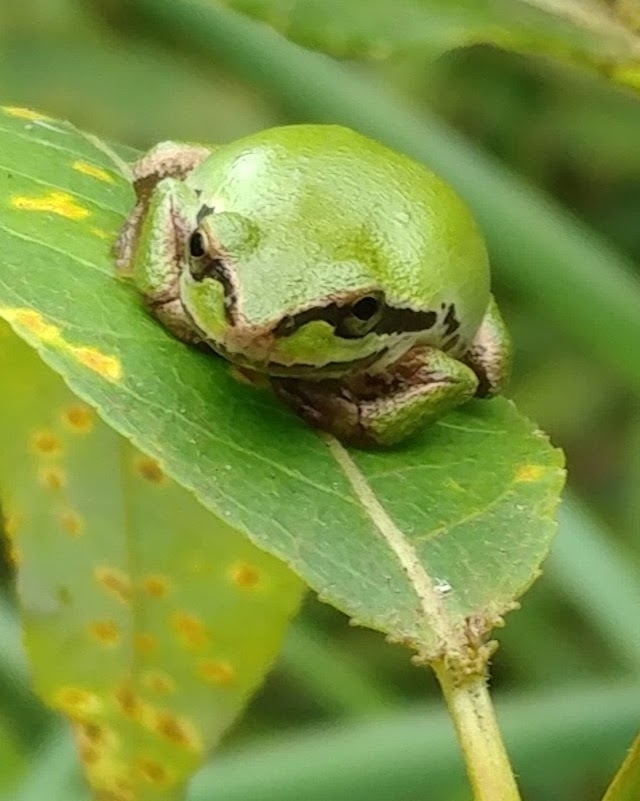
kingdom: Animalia
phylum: Chordata
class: Amphibia
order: Anura
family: Hylidae
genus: Pseudacris
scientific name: Pseudacris regilla
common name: Pacific chorus frog
